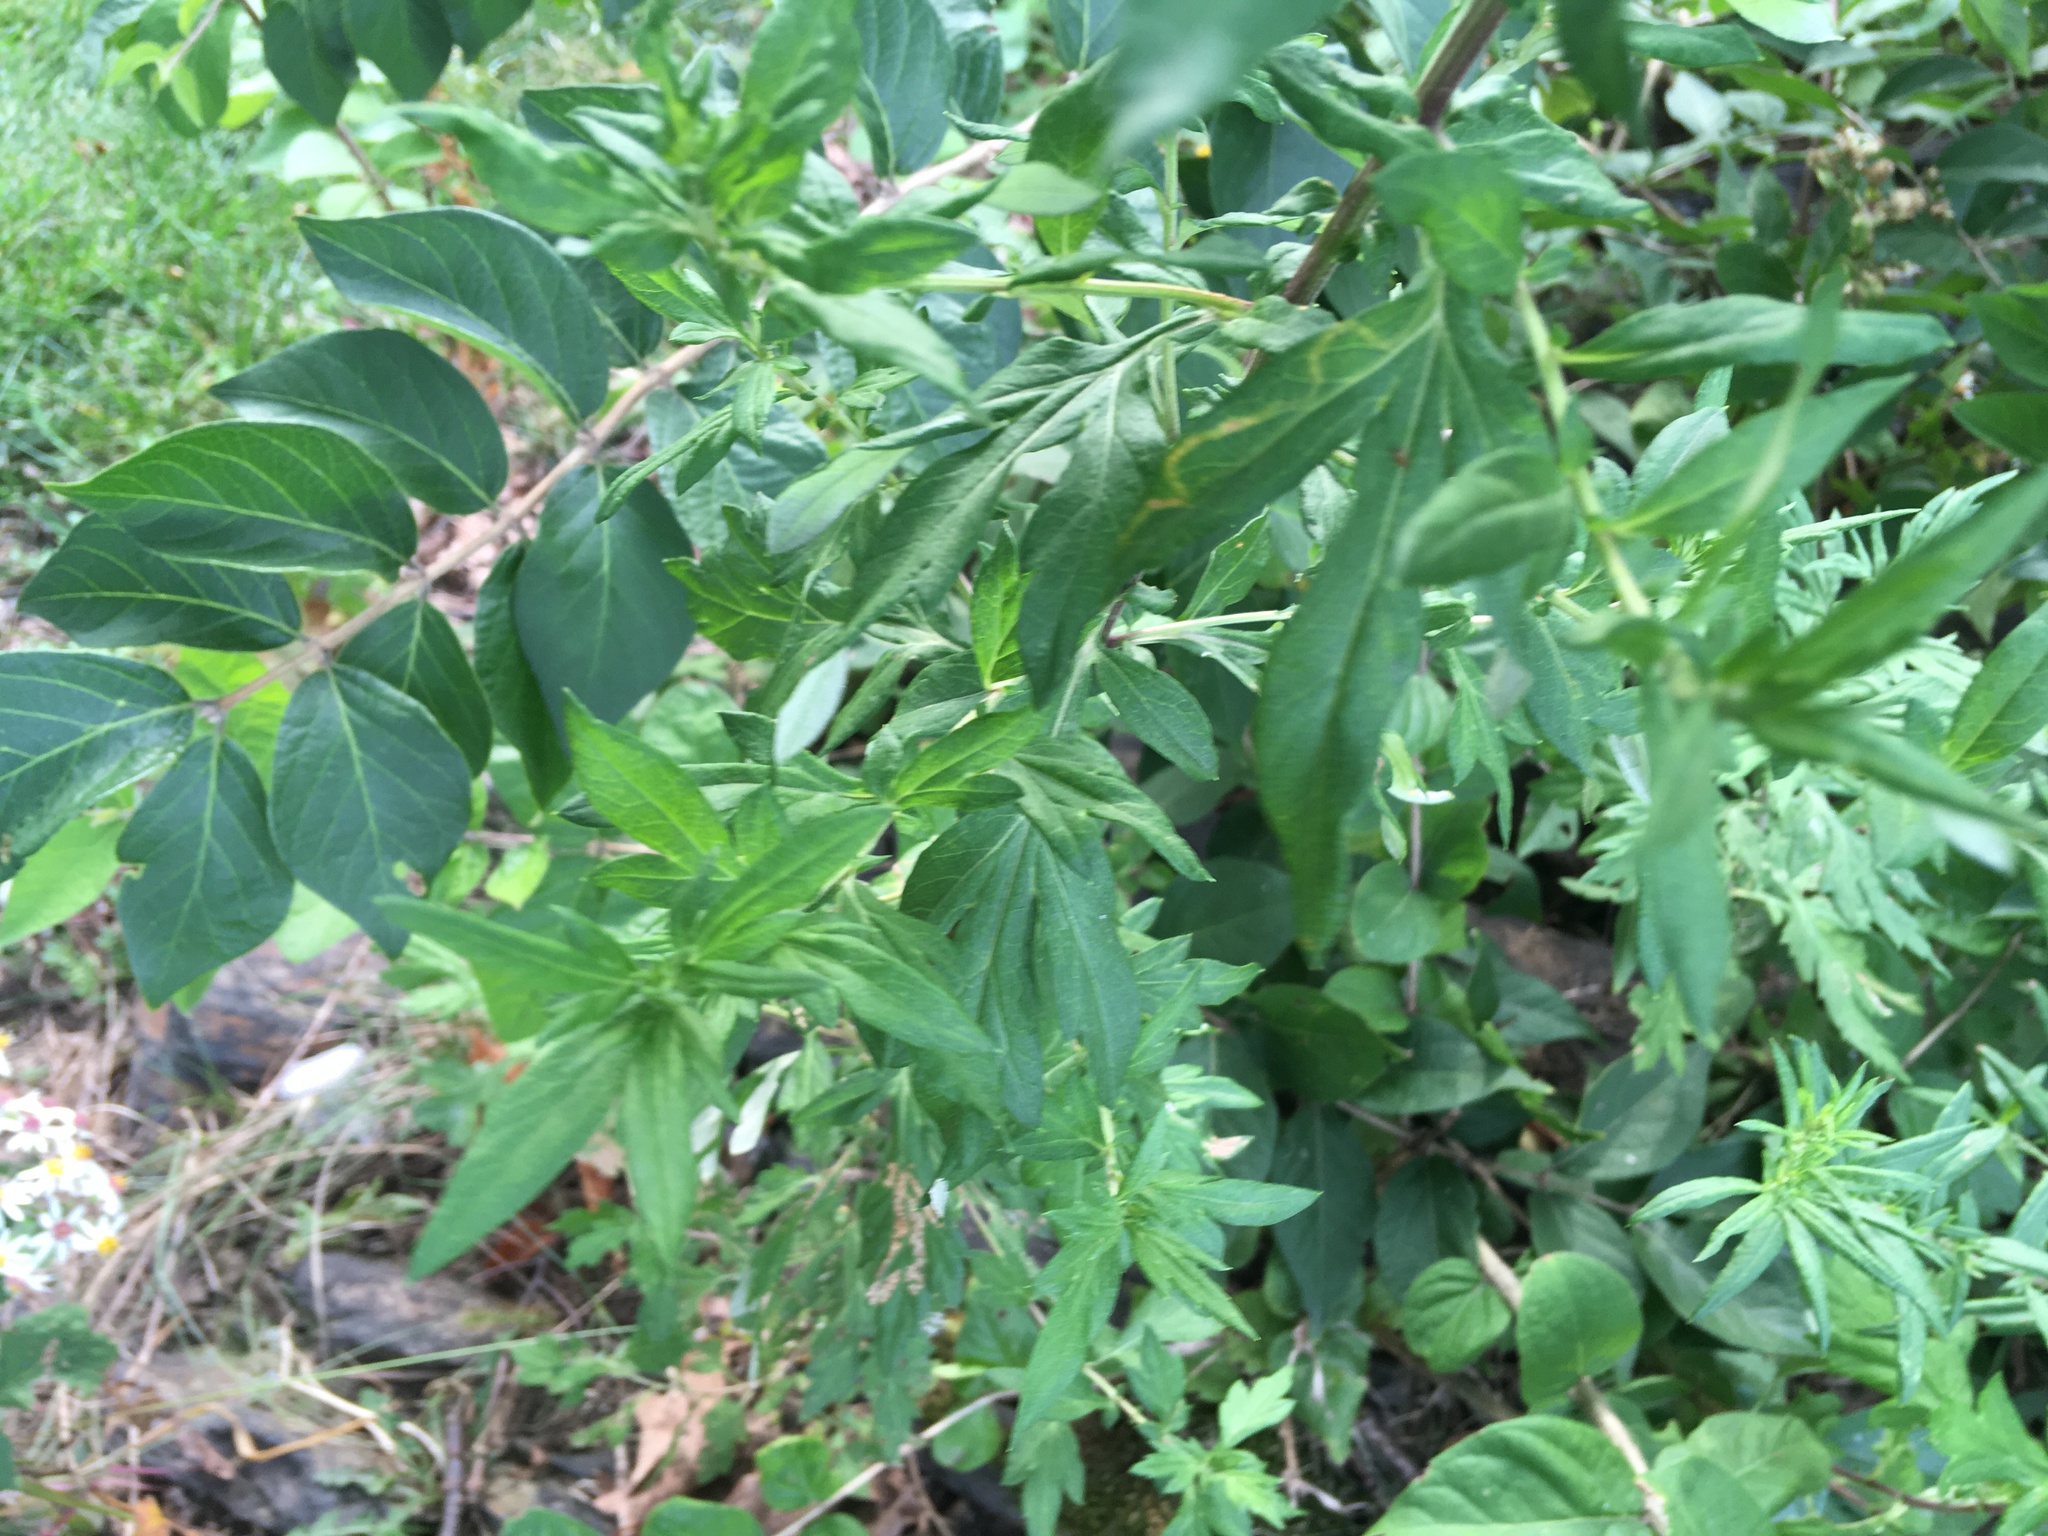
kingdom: Plantae
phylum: Tracheophyta
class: Magnoliopsida
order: Asterales
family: Asteraceae
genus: Artemisia
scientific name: Artemisia vulgaris
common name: Mugwort
